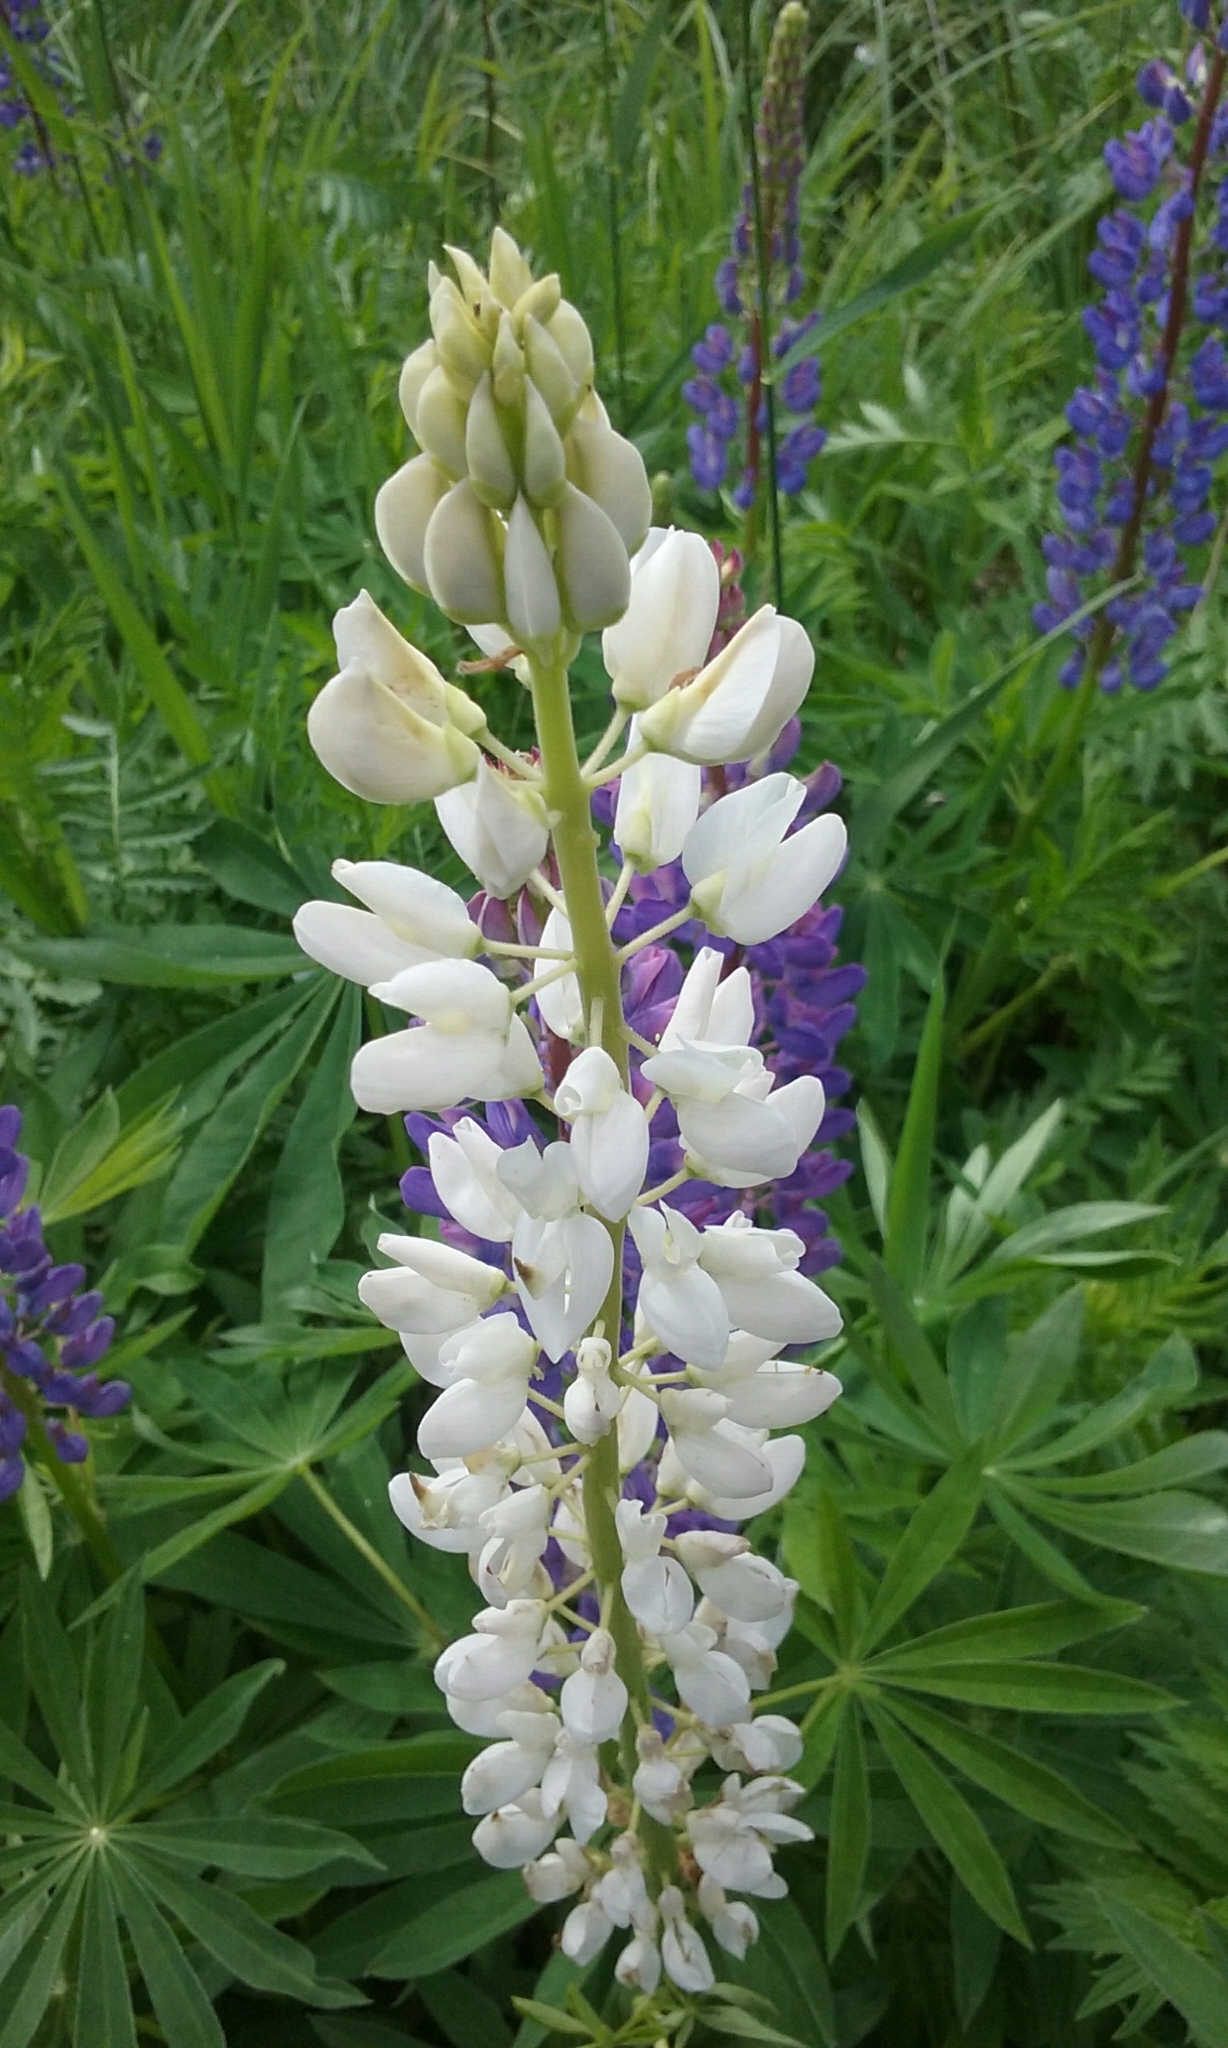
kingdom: Plantae
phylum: Tracheophyta
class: Magnoliopsida
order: Fabales
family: Fabaceae
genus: Lupinus
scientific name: Lupinus polyphyllus
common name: Garden lupin
